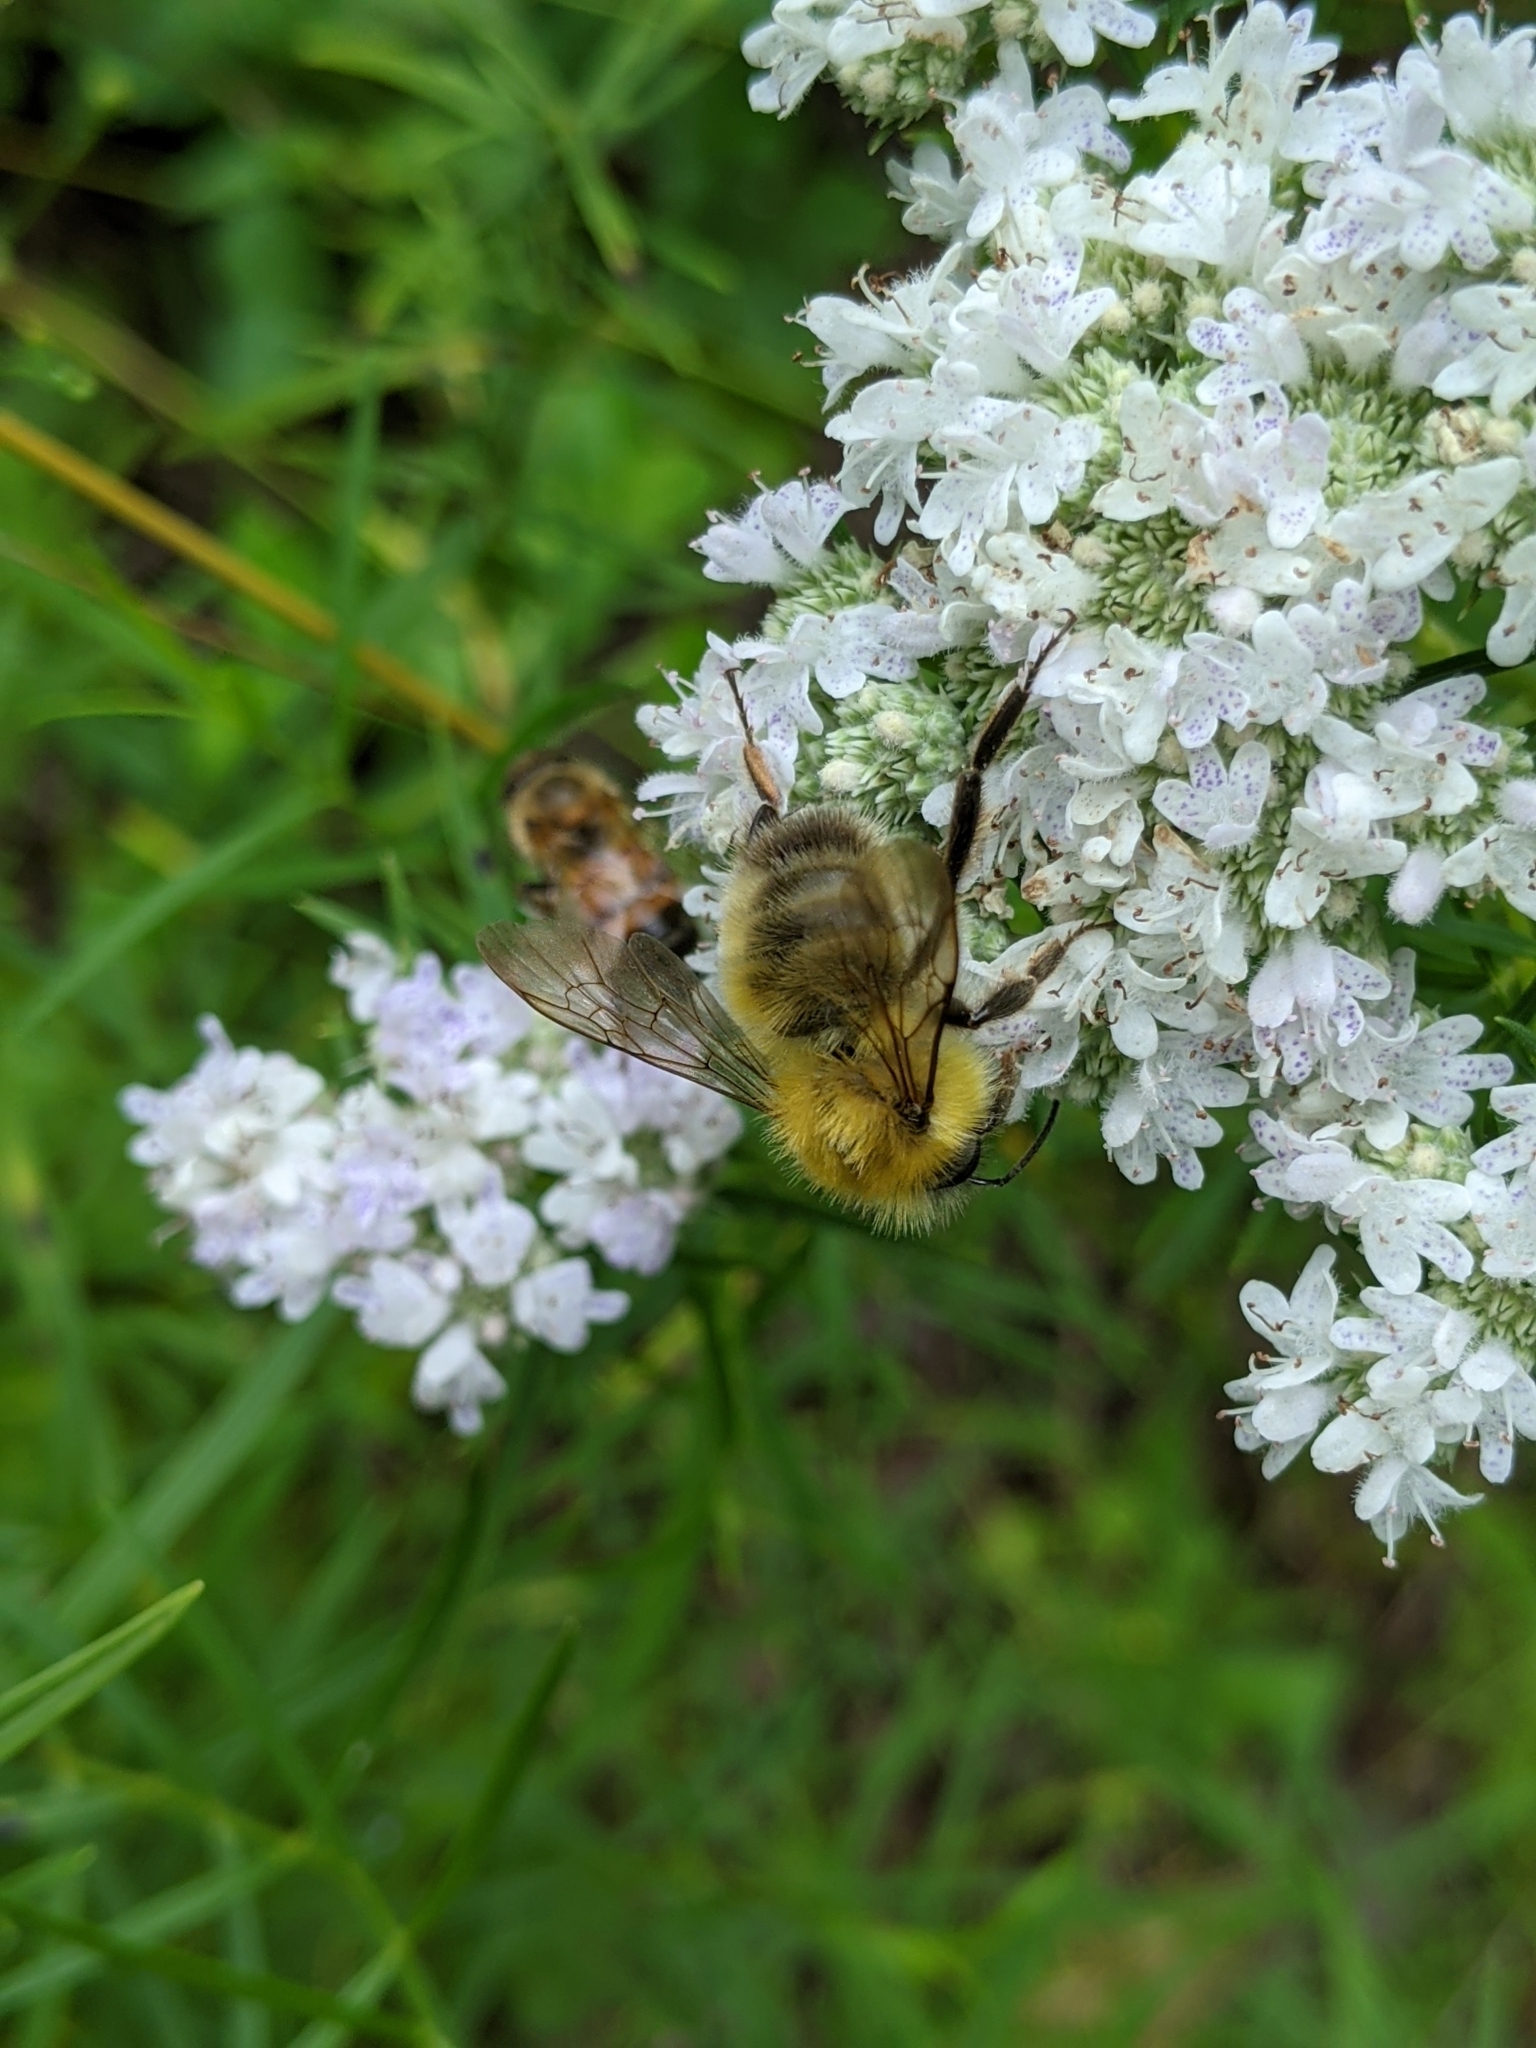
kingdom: Animalia
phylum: Arthropoda
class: Insecta
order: Hymenoptera
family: Apidae
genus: Bombus
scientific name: Bombus perplexus
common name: Confusing bumble bee
